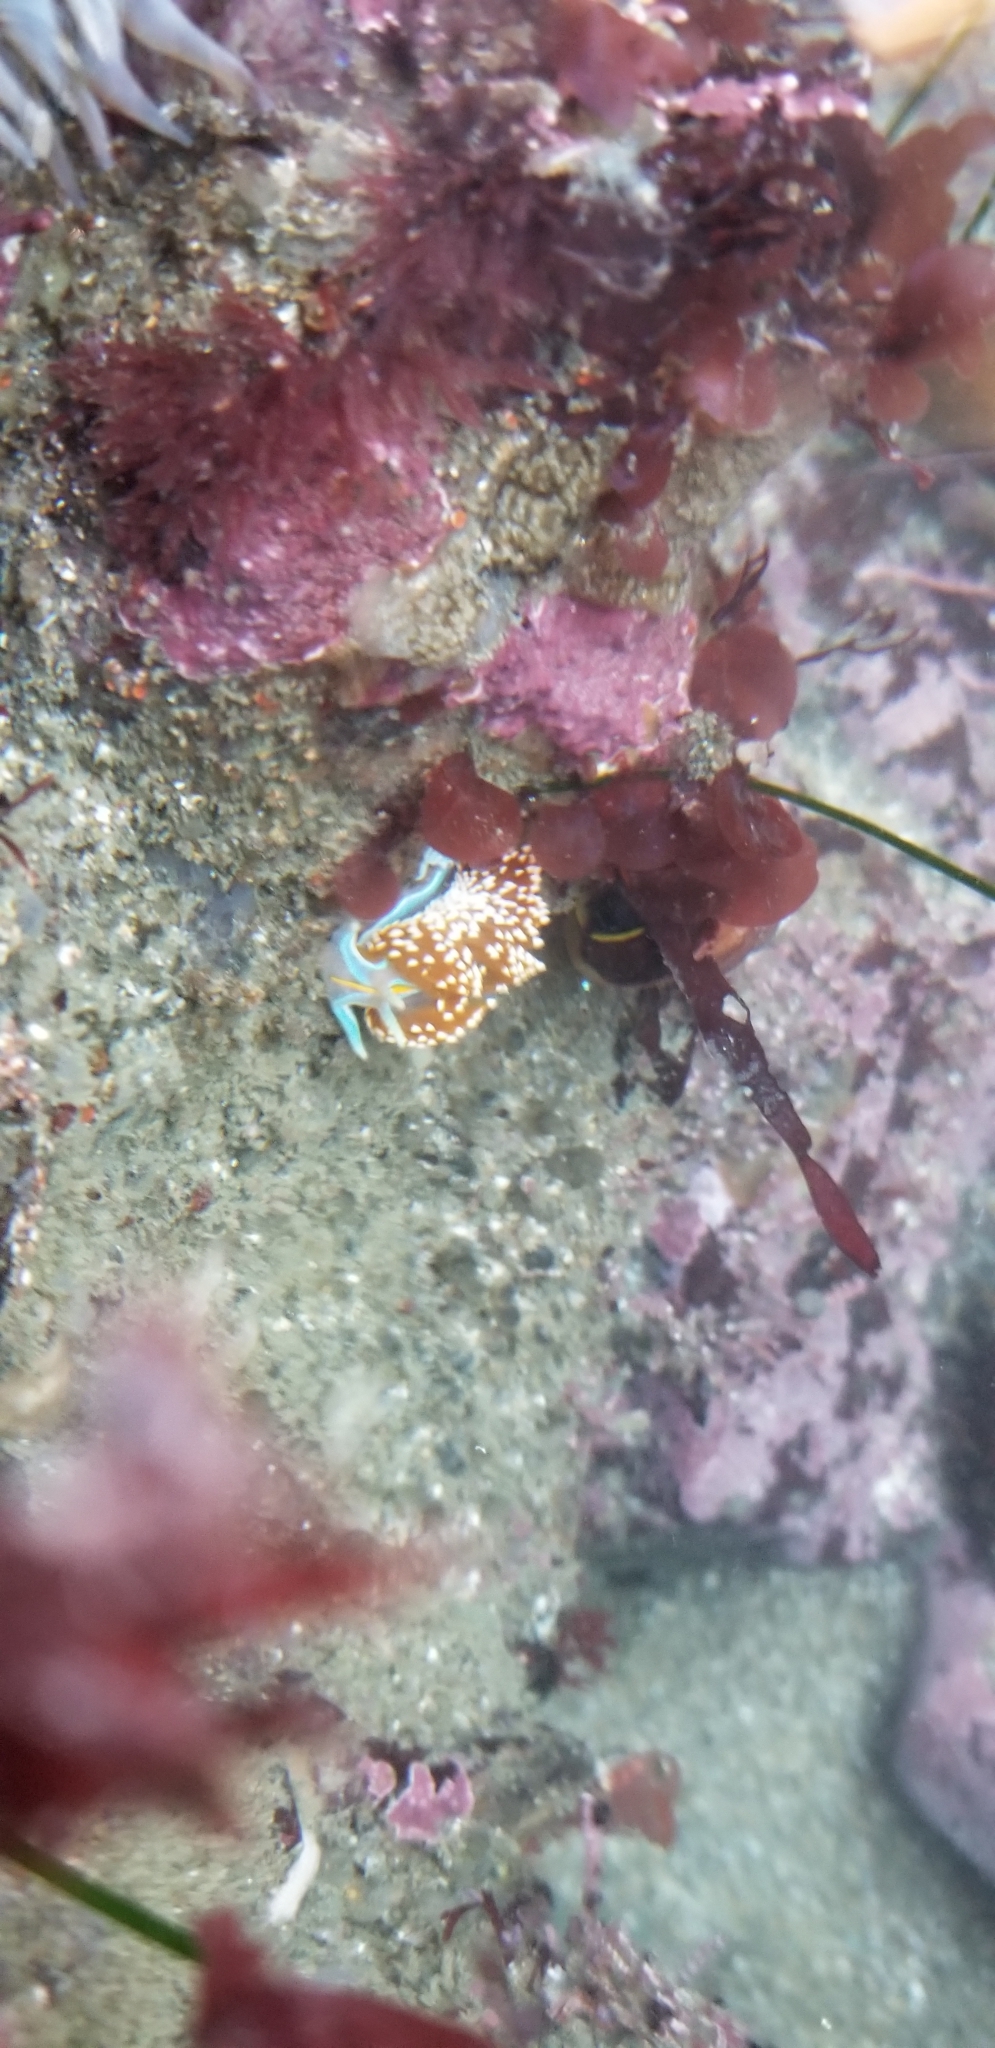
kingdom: Animalia
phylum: Mollusca
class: Gastropoda
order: Nudibranchia
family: Myrrhinidae
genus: Hermissenda
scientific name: Hermissenda opalescens
